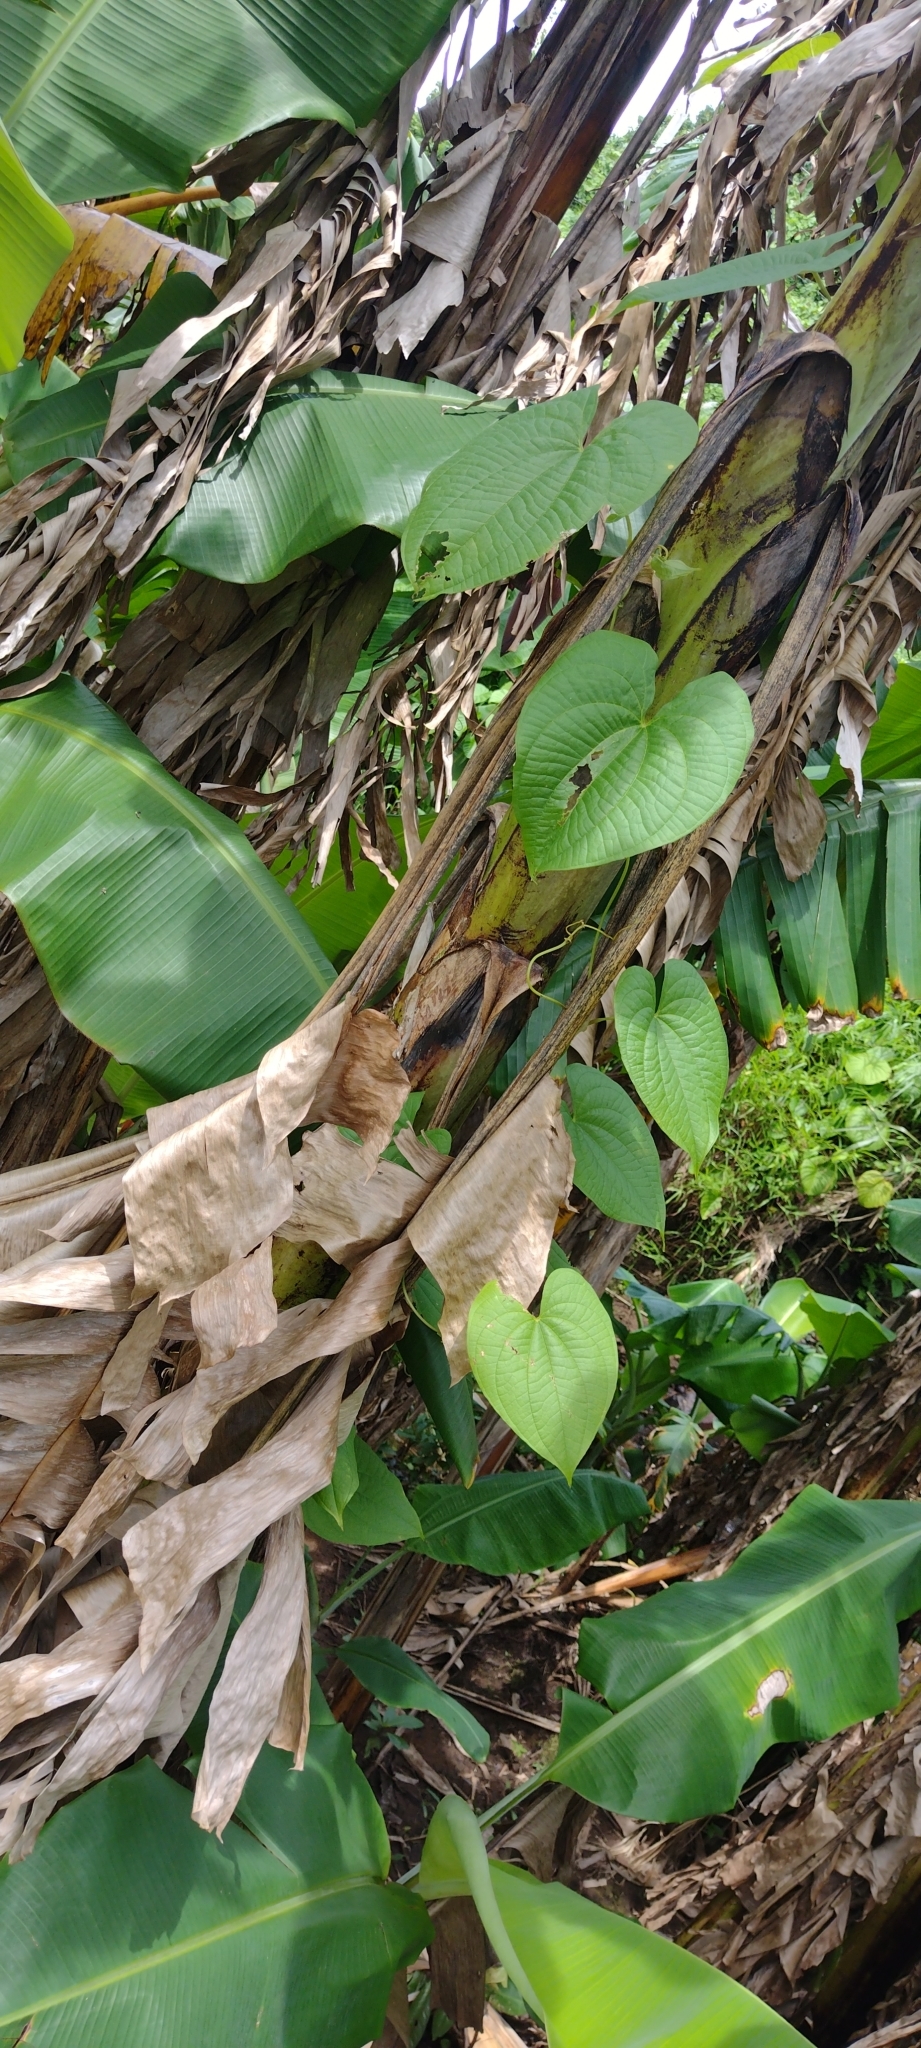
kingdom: Plantae
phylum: Tracheophyta
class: Liliopsida
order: Dioscoreales
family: Dioscoreaceae
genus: Dioscorea
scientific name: Dioscorea bulbifera
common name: Air yam
